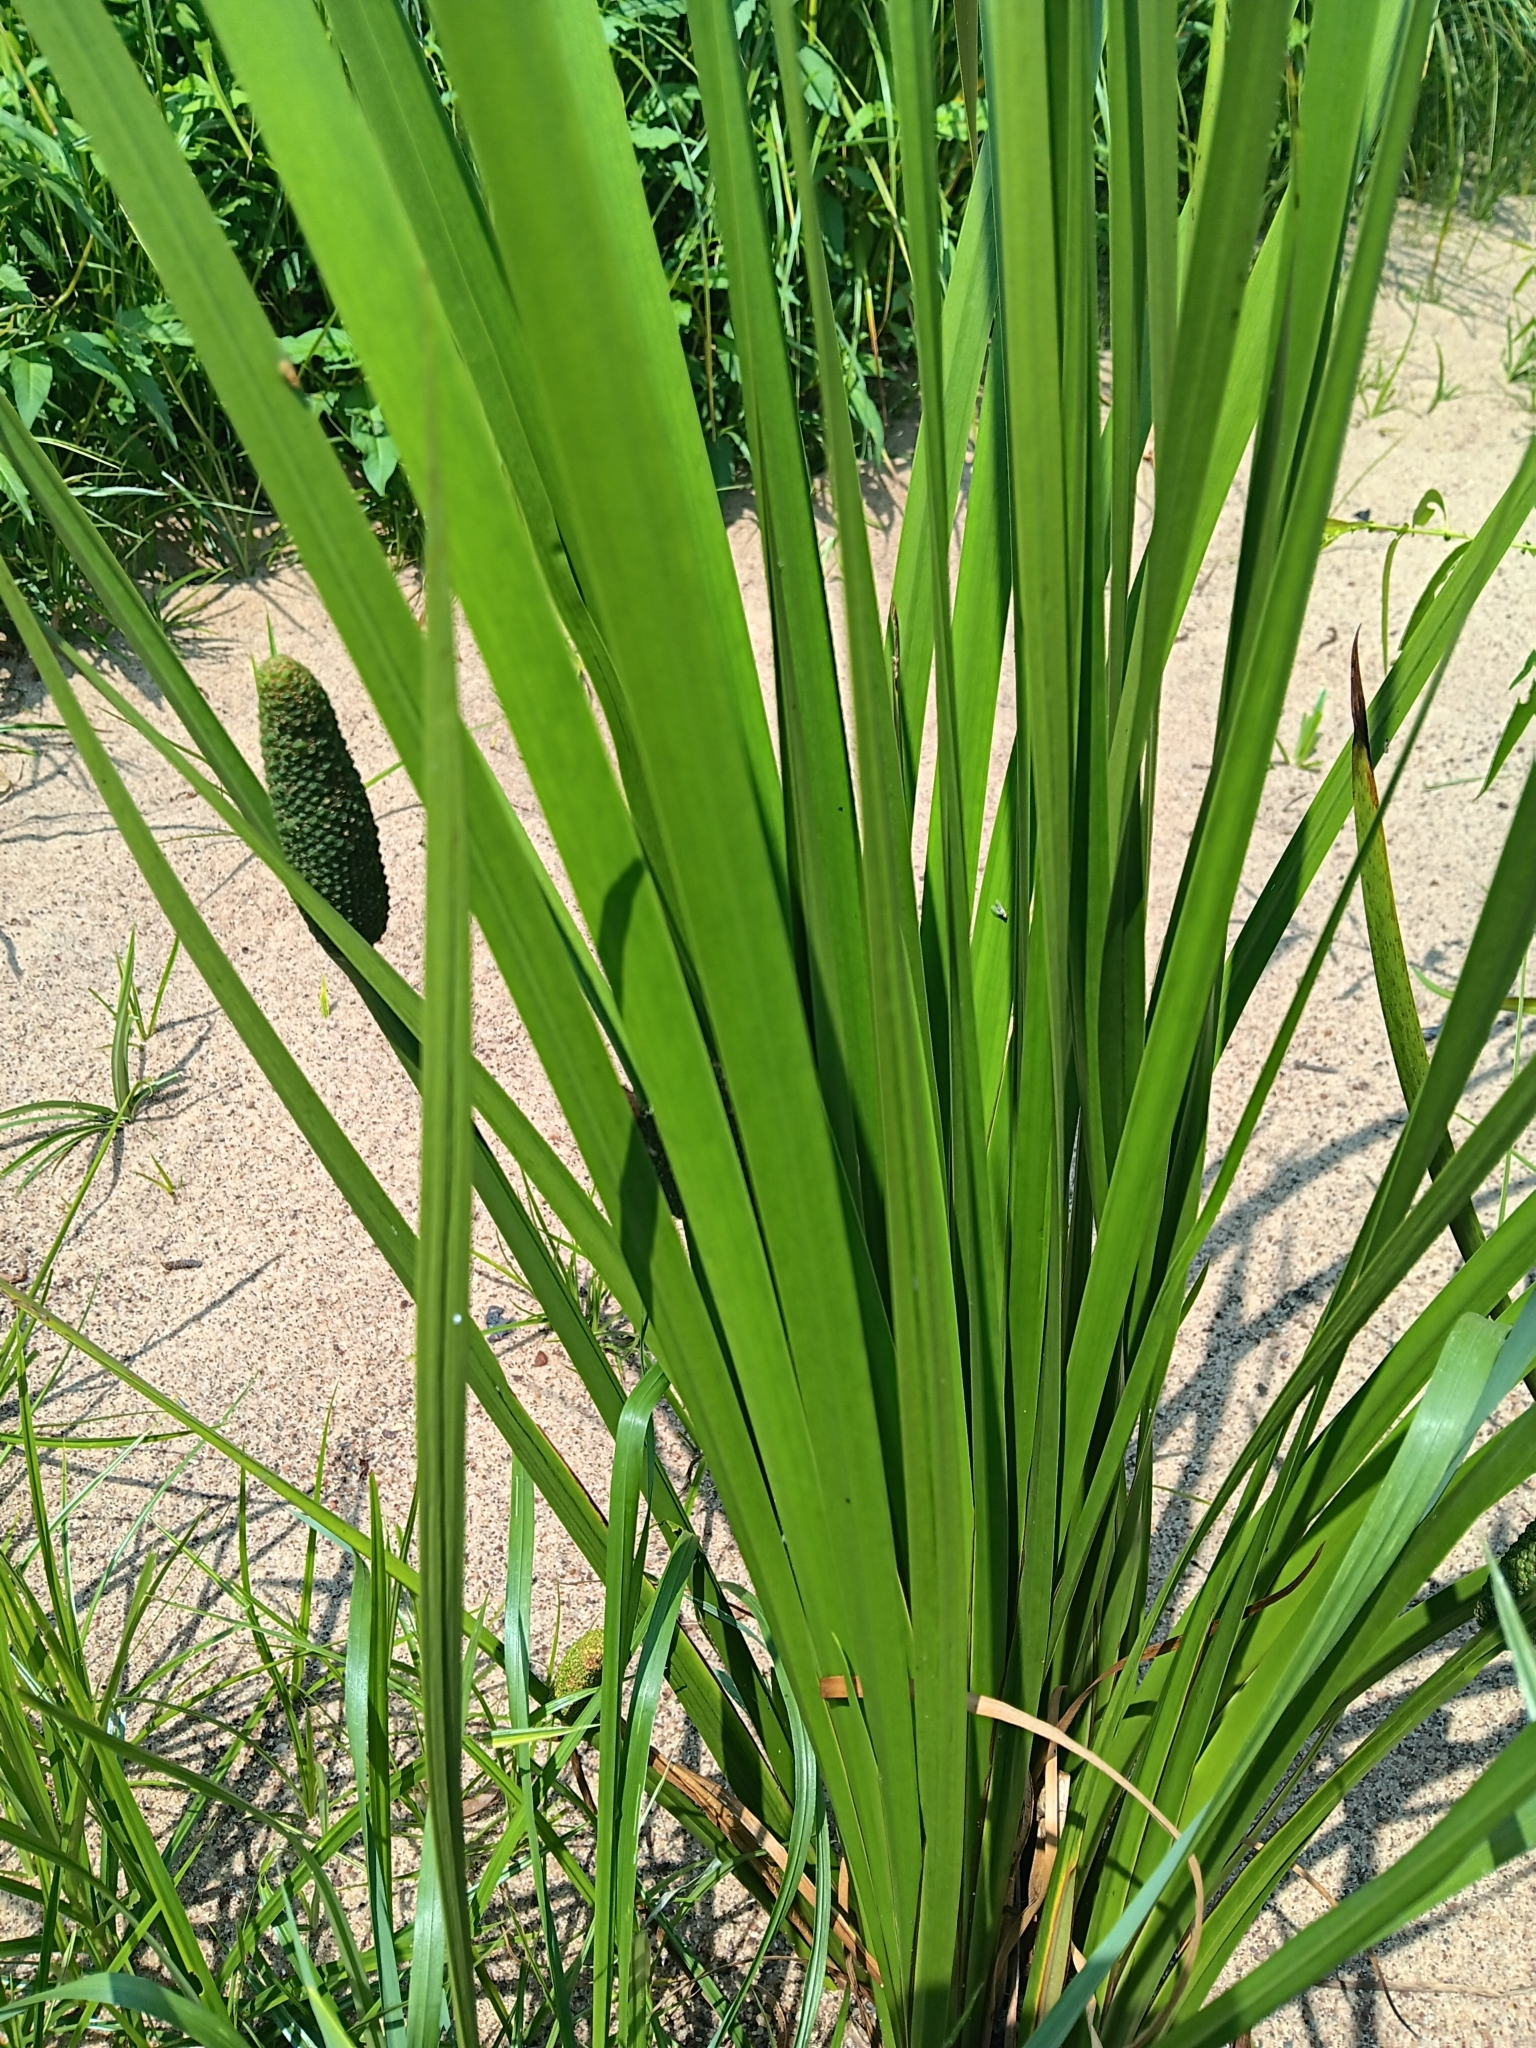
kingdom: Plantae
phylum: Tracheophyta
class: Liliopsida
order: Acorales
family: Acoraceae
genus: Acorus
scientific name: Acorus calamus
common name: Sweet-flag
